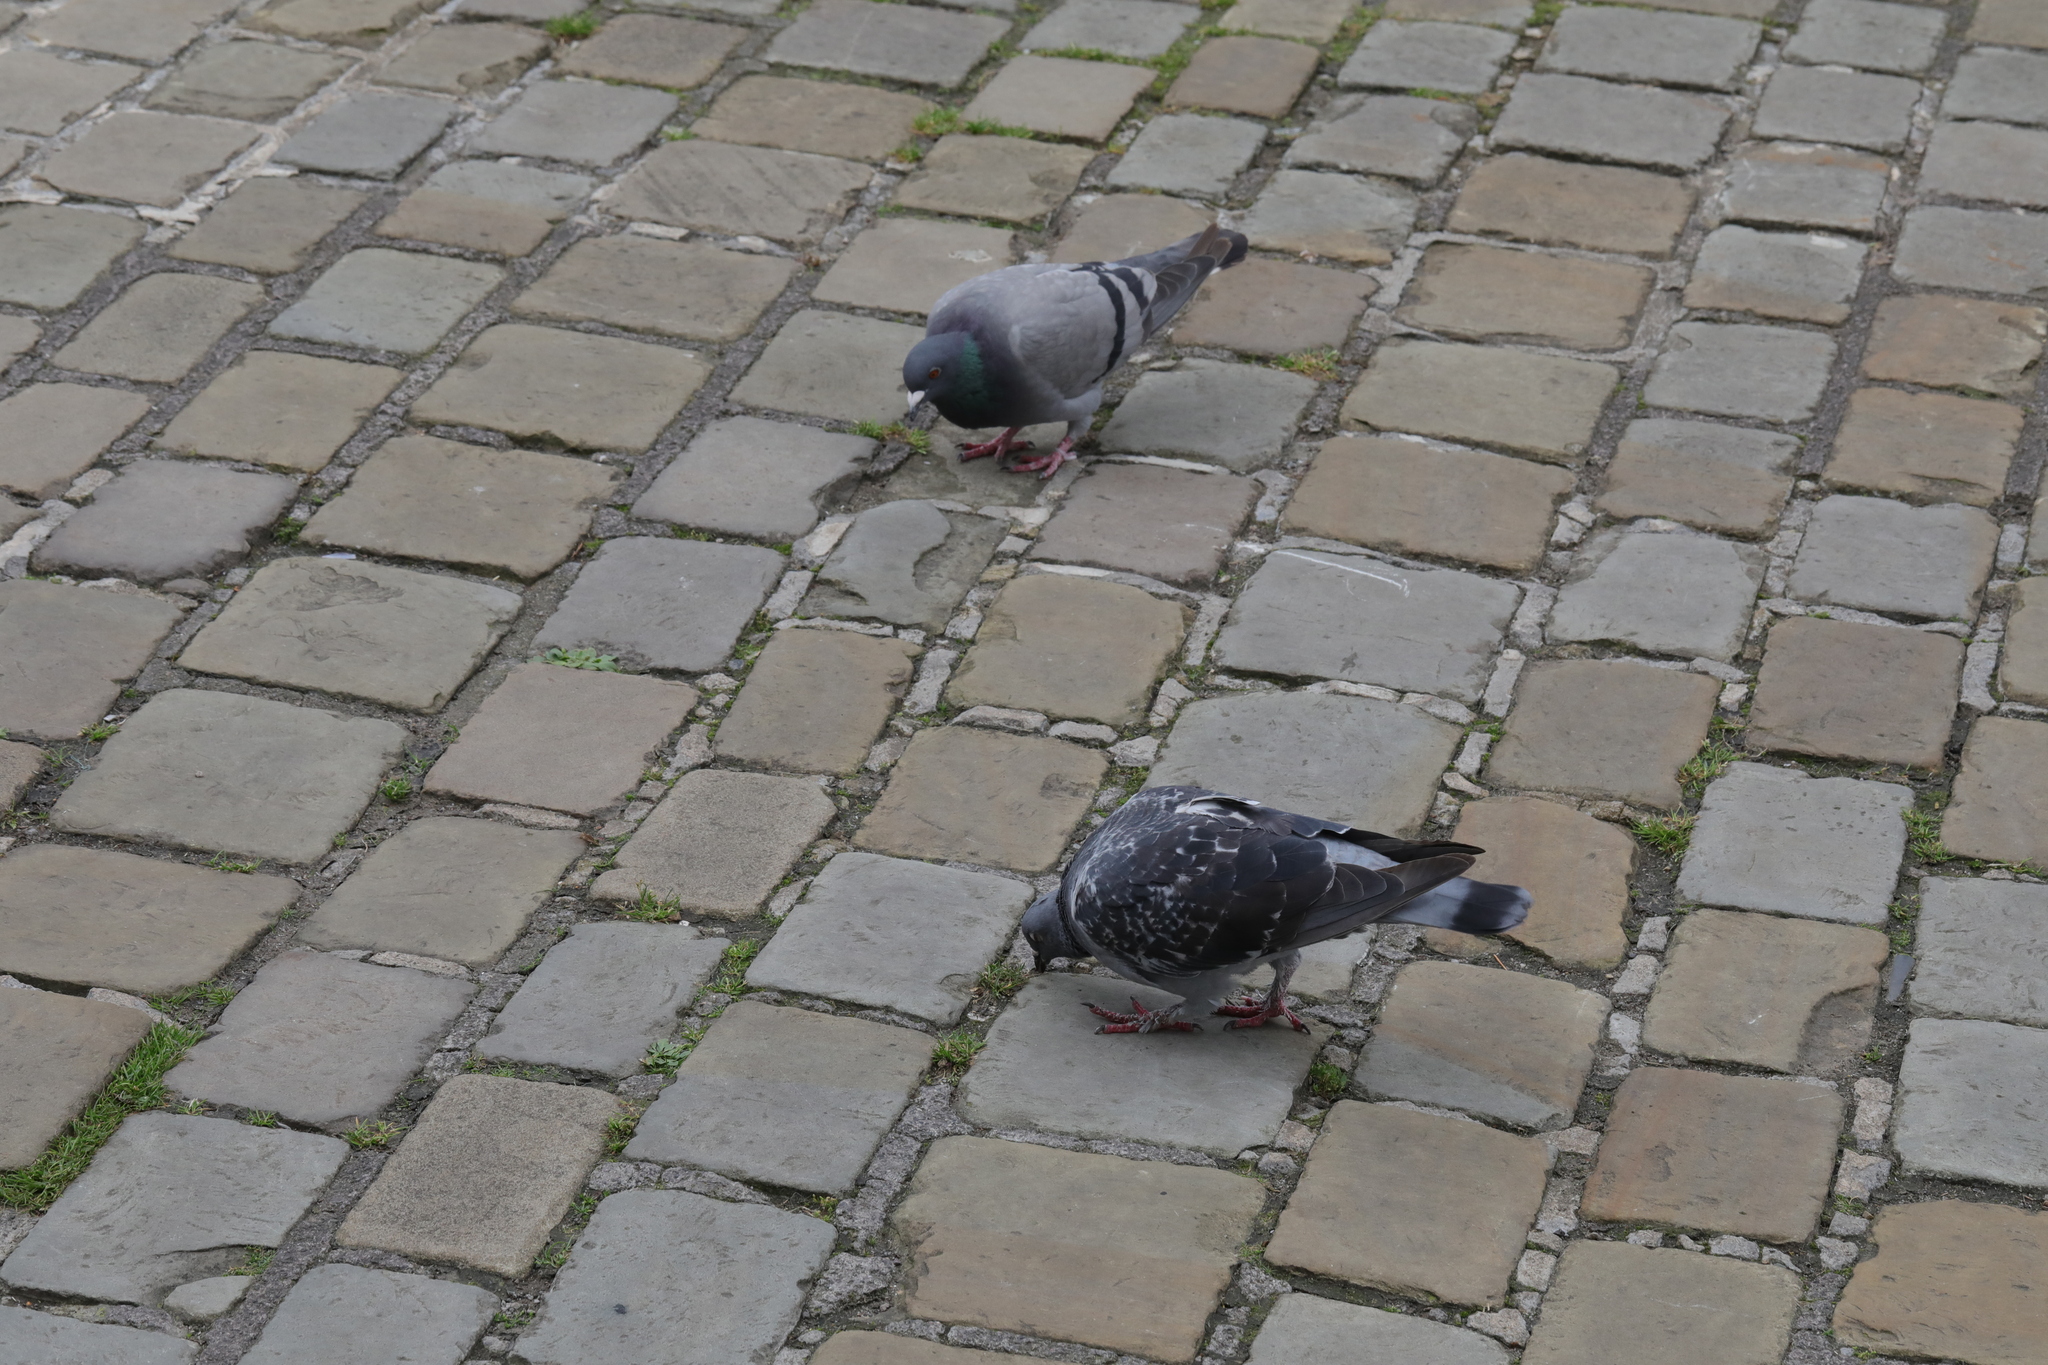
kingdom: Animalia
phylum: Chordata
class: Aves
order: Columbiformes
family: Columbidae
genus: Columba
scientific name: Columba livia
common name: Rock pigeon
